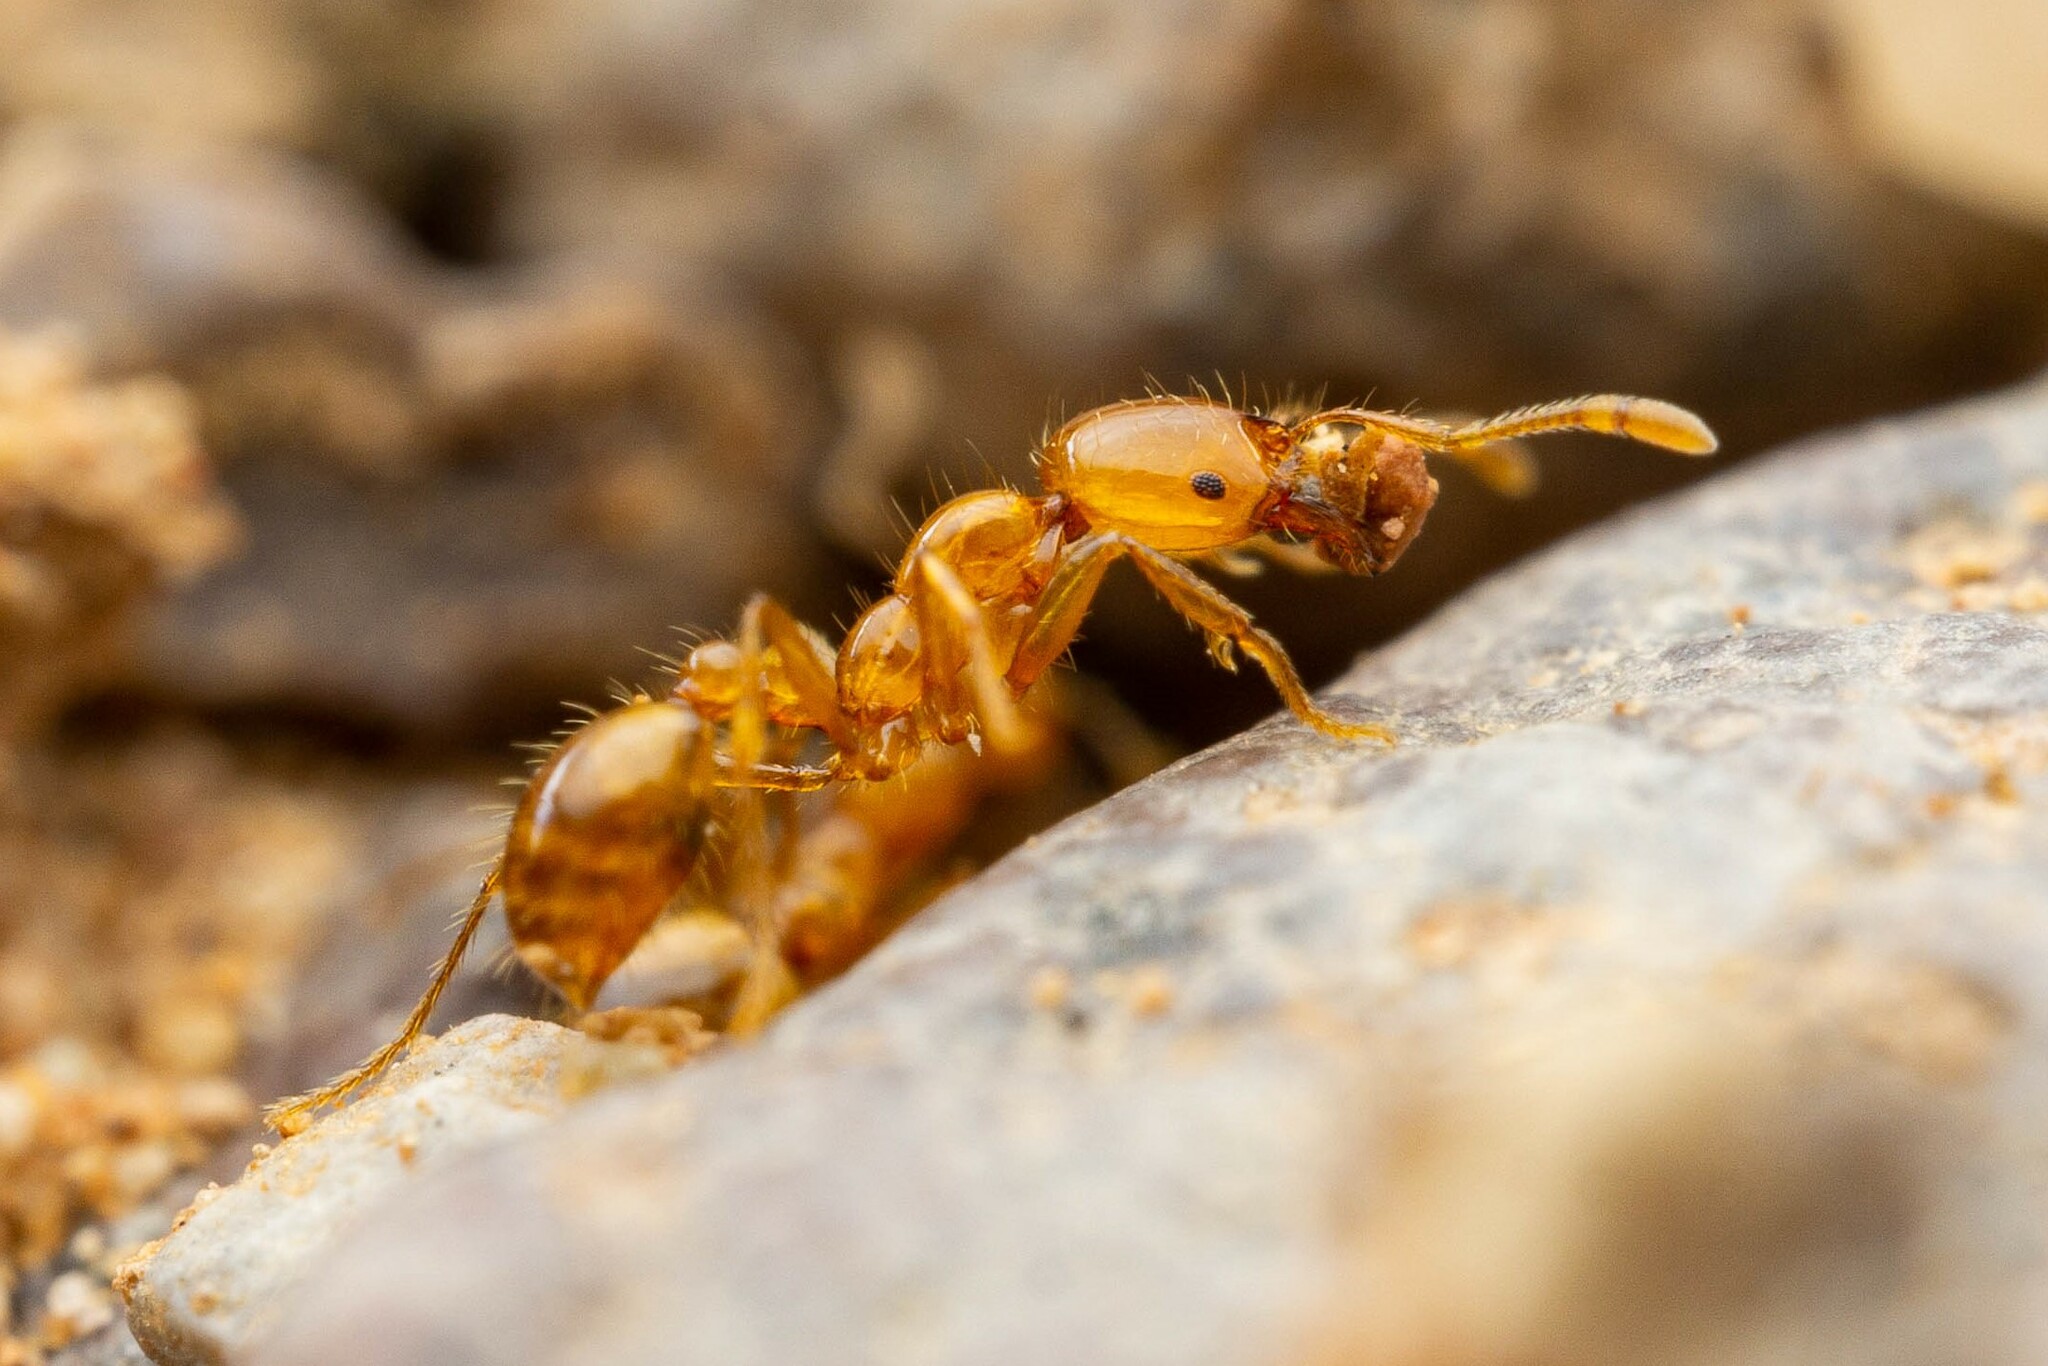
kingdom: Animalia
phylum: Arthropoda
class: Insecta
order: Hymenoptera
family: Formicidae
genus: Solenopsis
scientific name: Solenopsis aurea
